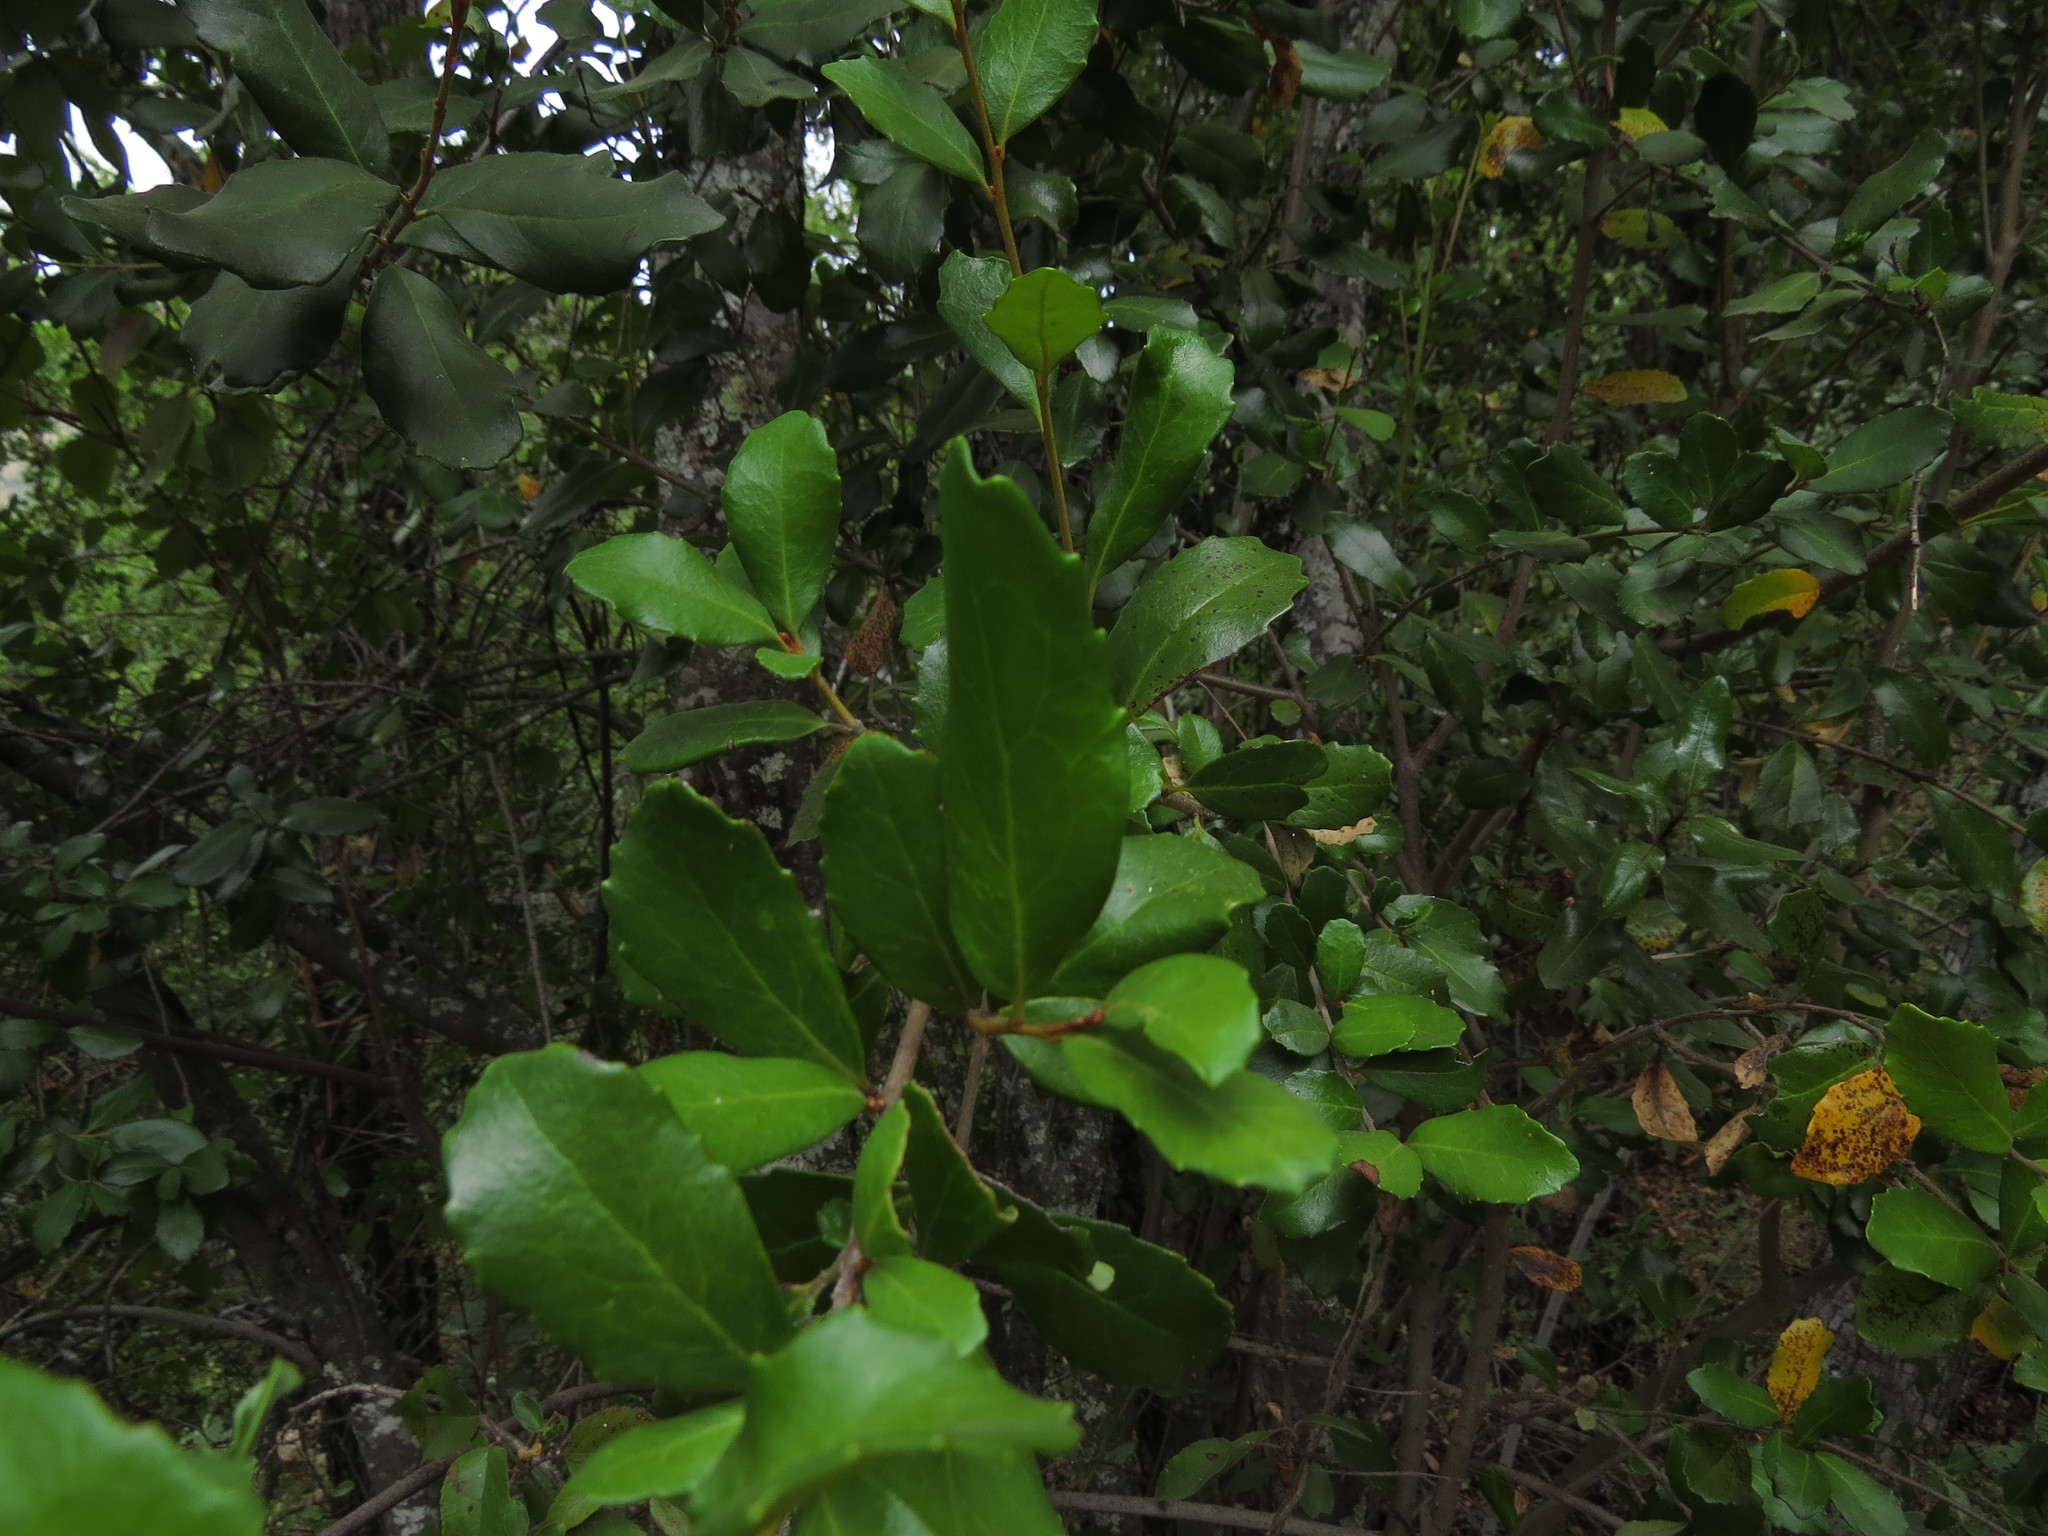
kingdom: Plantae
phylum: Tracheophyta
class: Magnoliopsida
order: Proteales
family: Proteaceae
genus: Lomatia
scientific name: Lomatia dentata
